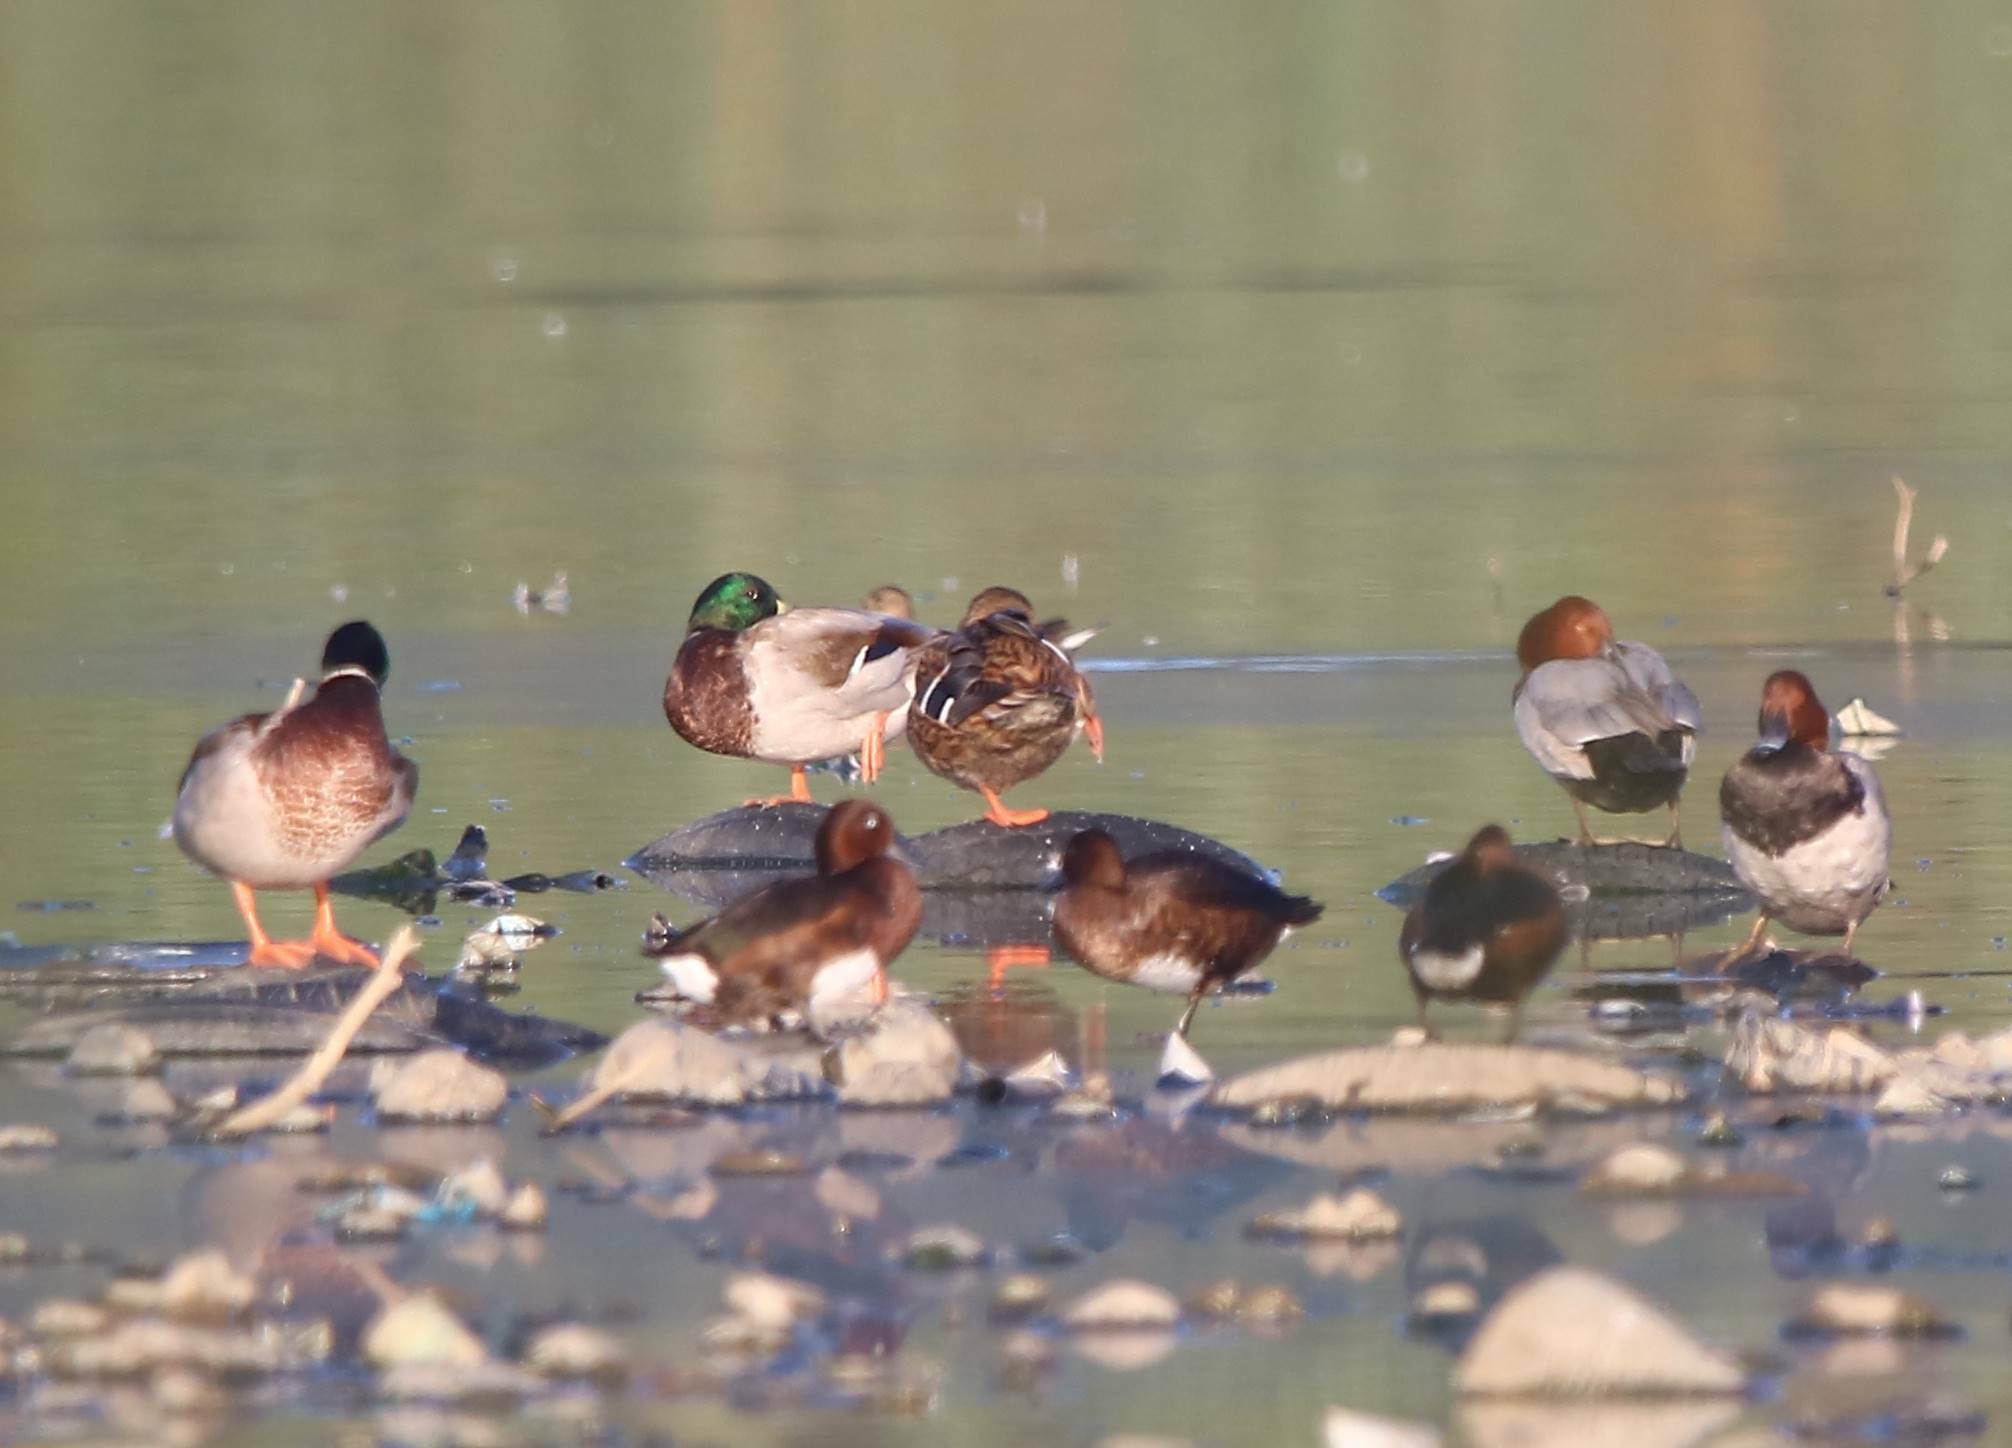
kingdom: Animalia
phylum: Chordata
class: Aves
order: Anseriformes
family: Anatidae
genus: Anas
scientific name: Anas platyrhynchos
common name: Mallard
